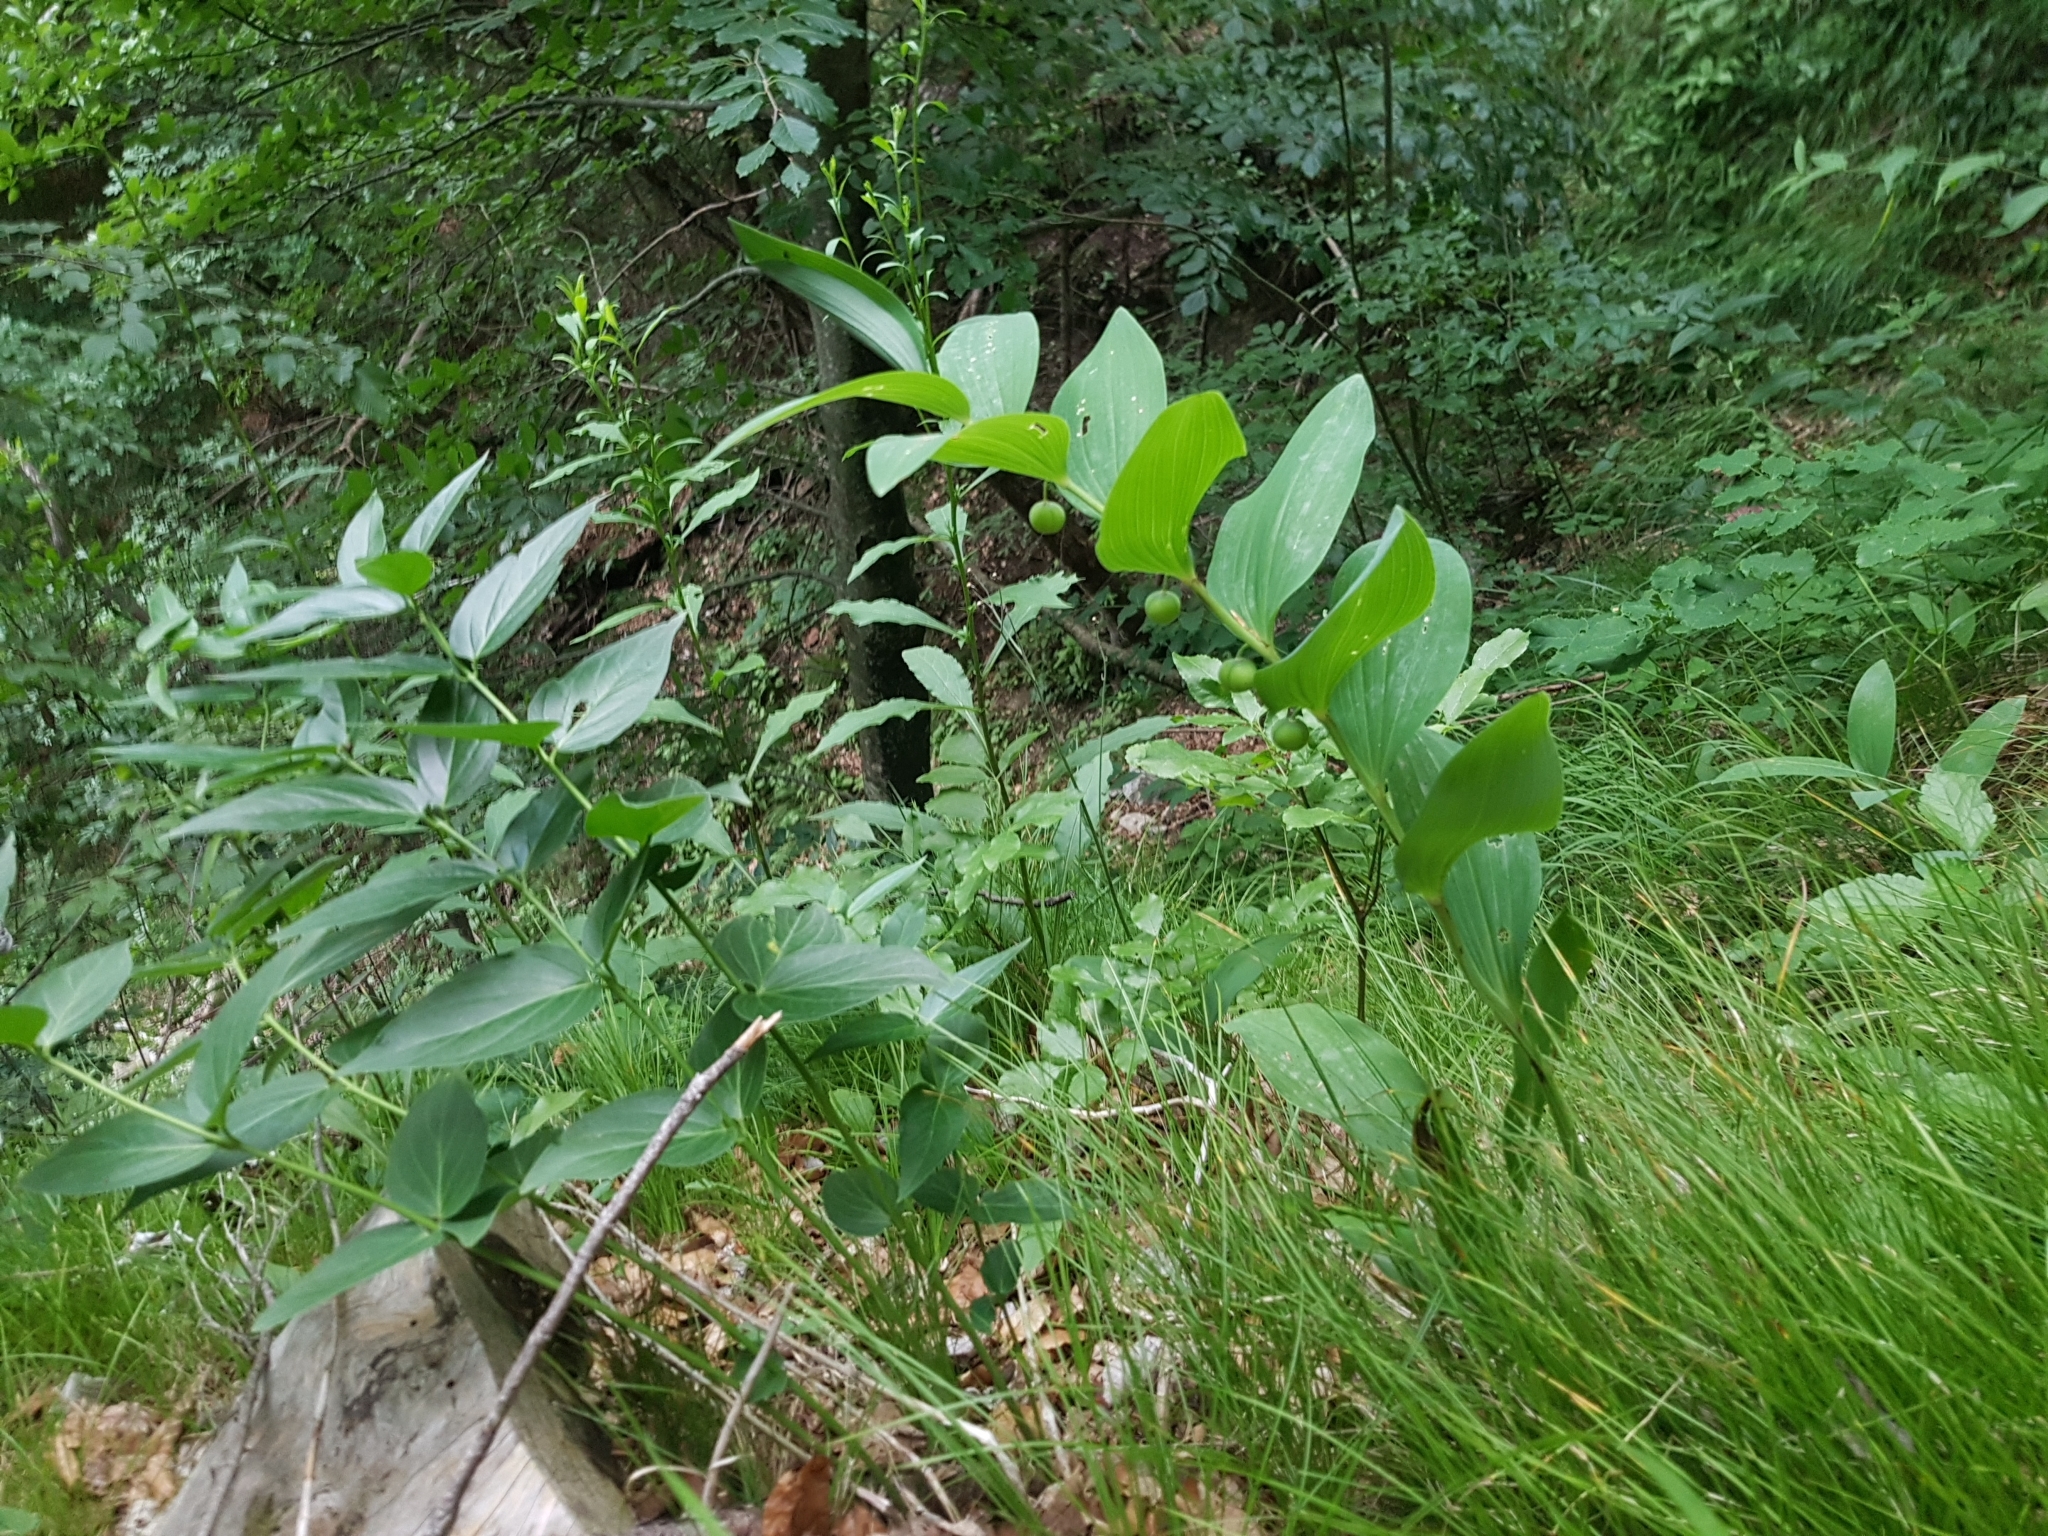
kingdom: Plantae
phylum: Tracheophyta
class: Liliopsida
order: Asparagales
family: Asparagaceae
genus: Polygonatum
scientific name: Polygonatum odoratum
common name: Angular solomon's-seal
